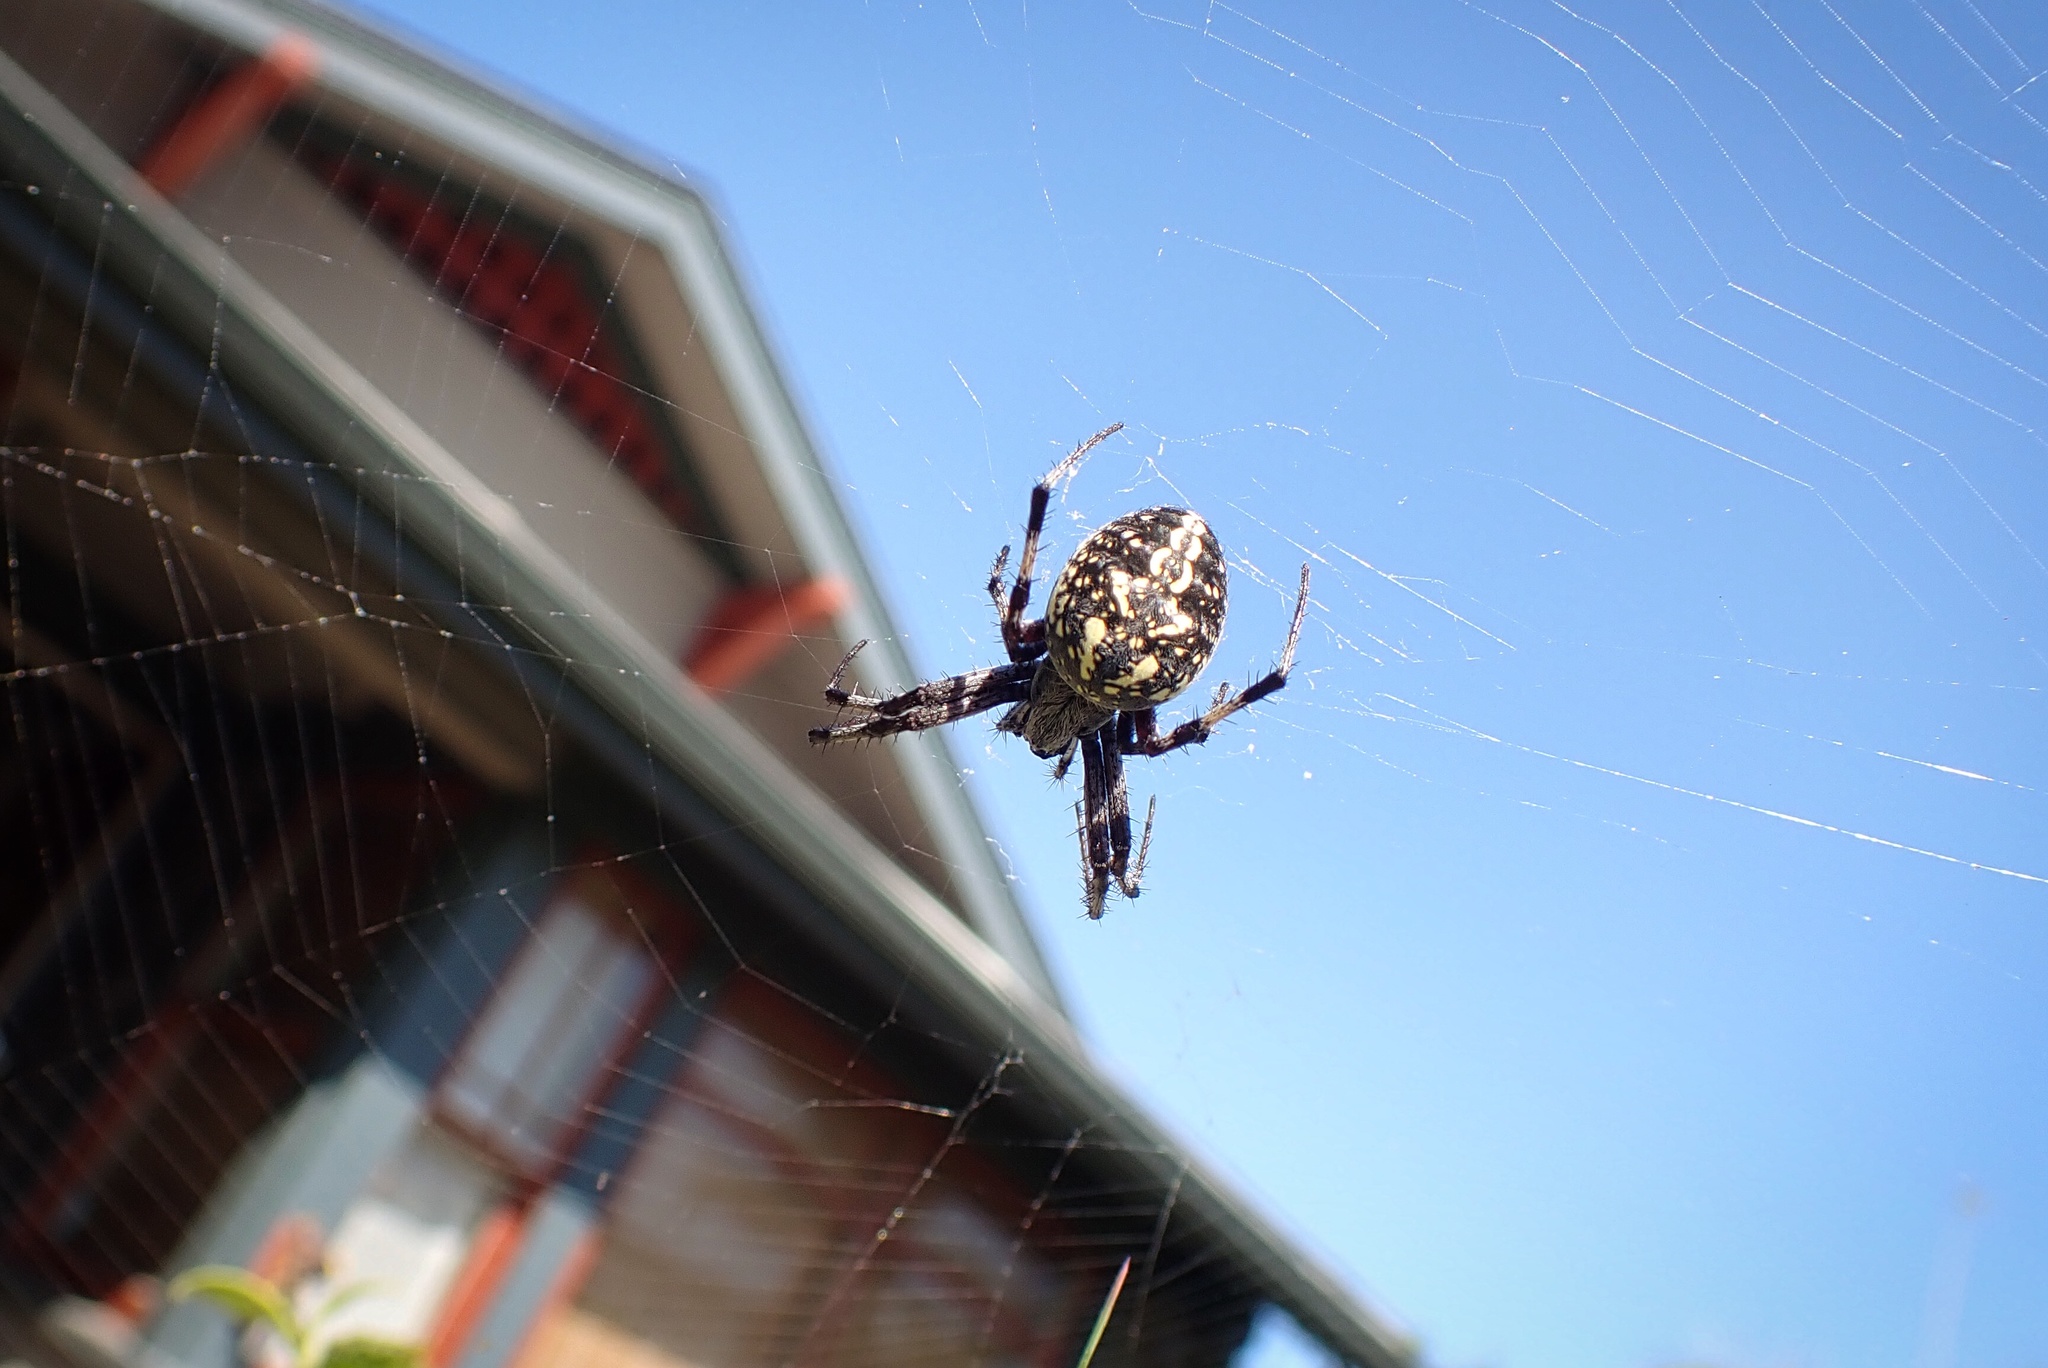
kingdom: Animalia
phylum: Arthropoda
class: Arachnida
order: Araneae
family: Araneidae
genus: Neoscona
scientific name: Neoscona oaxacensis
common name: Orb weavers
